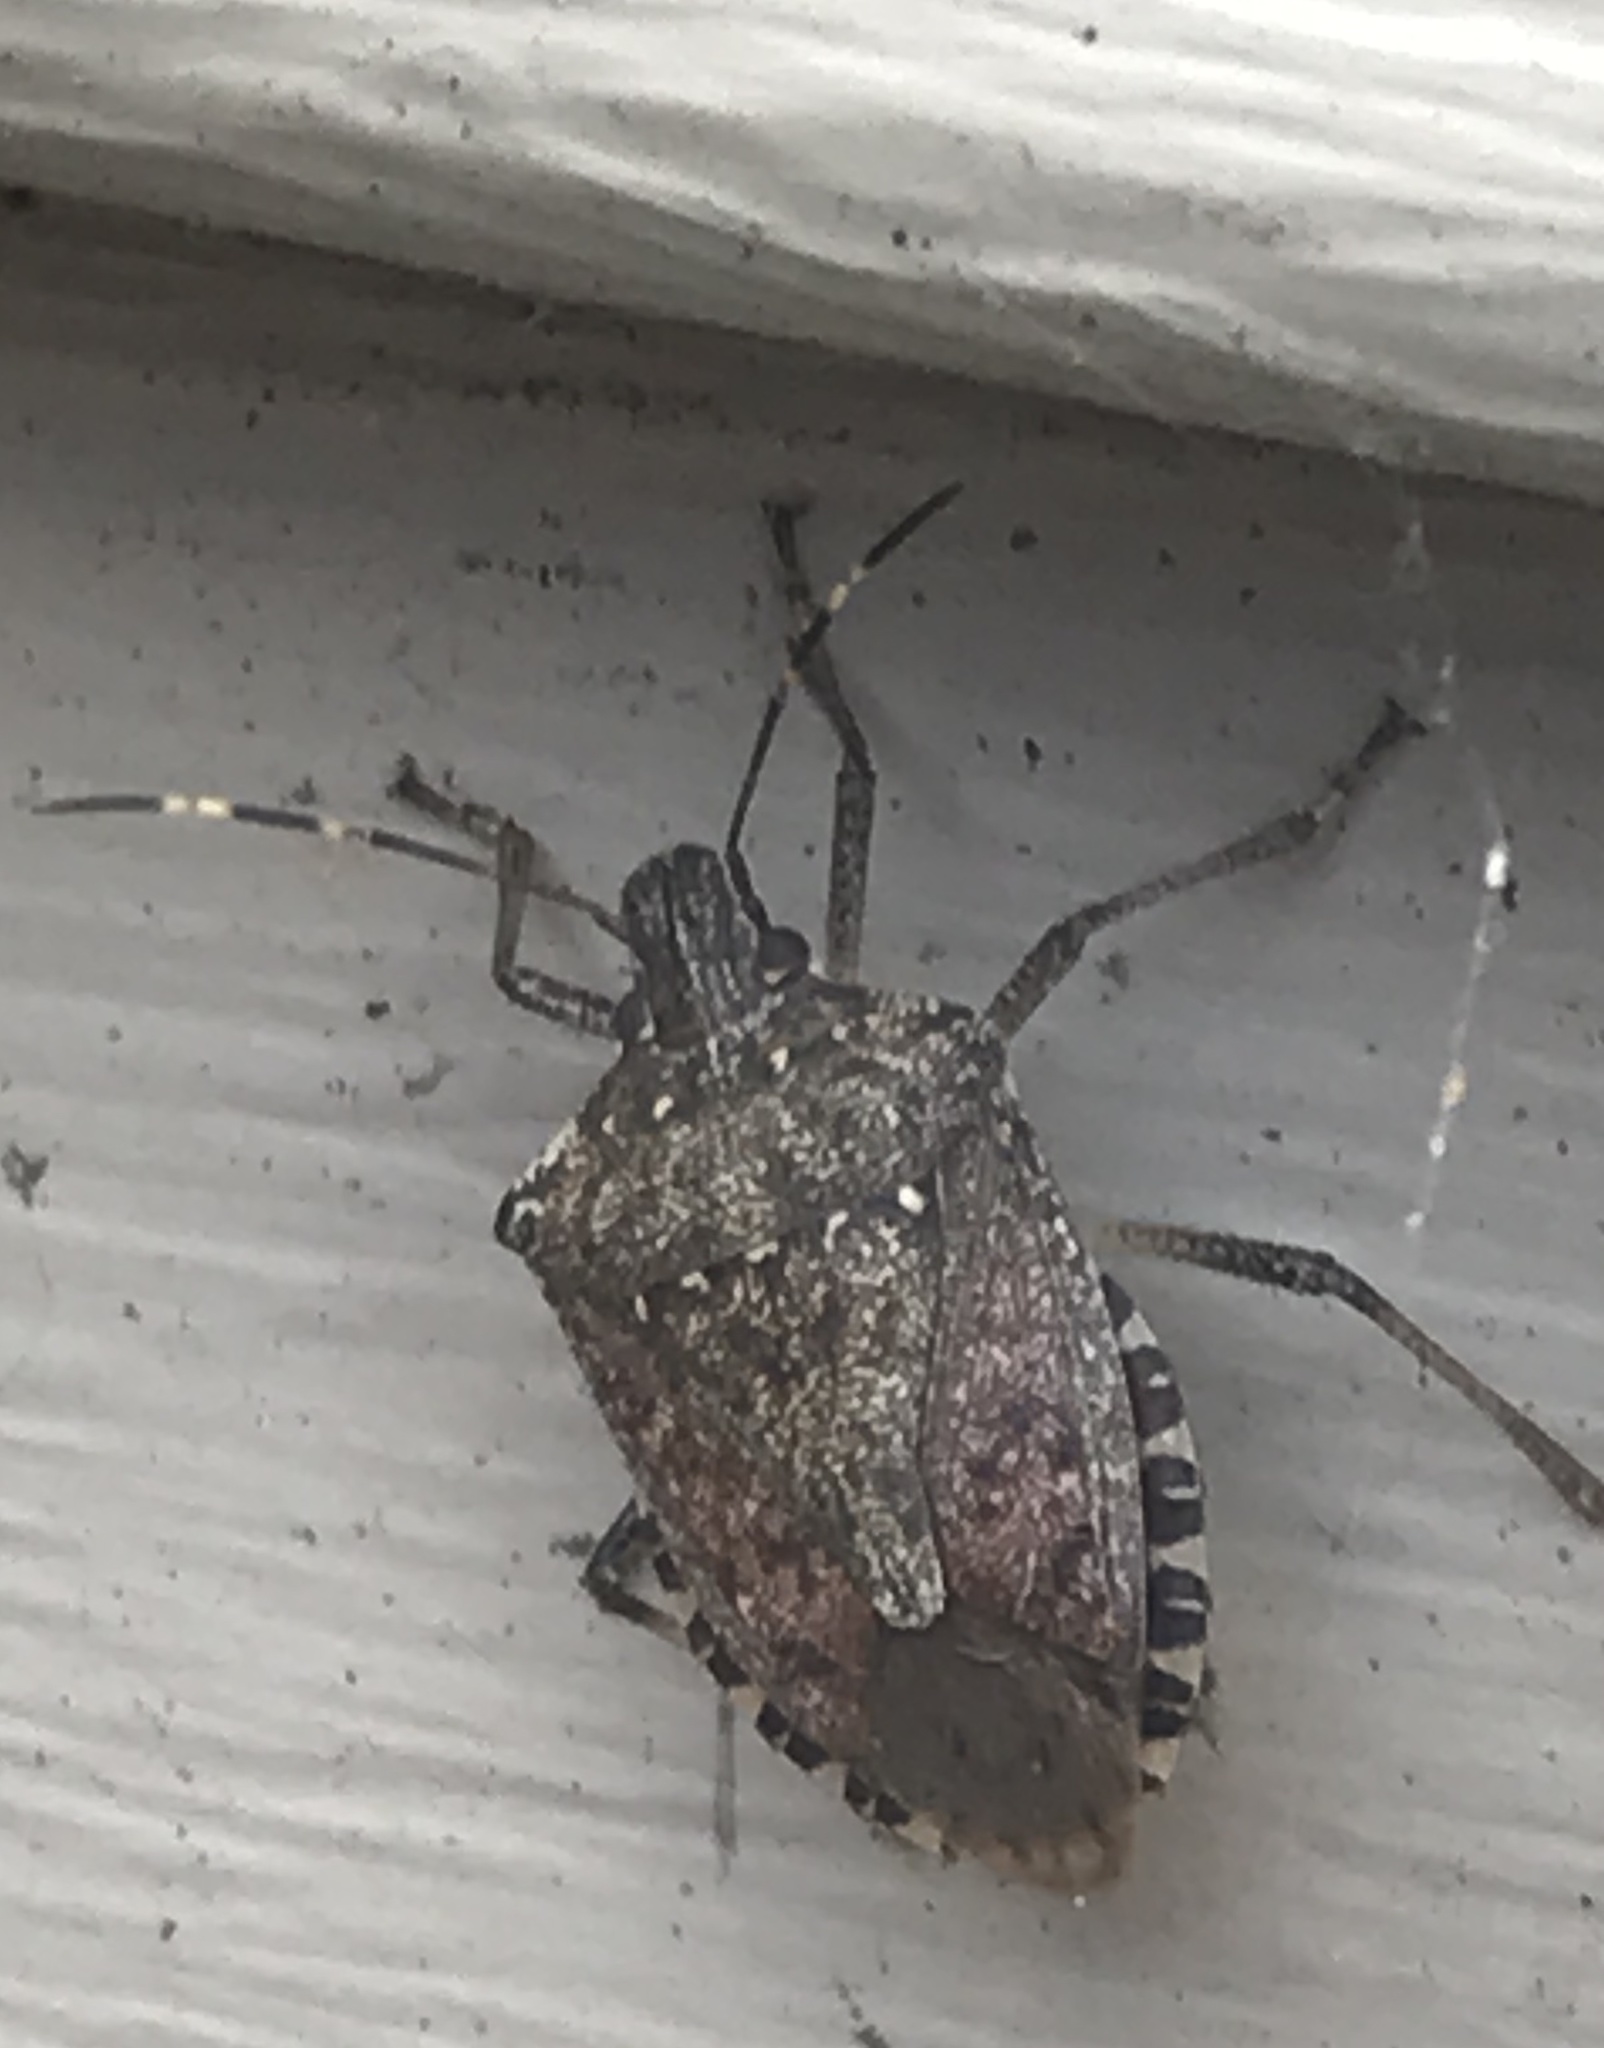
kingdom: Animalia
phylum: Arthropoda
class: Insecta
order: Hemiptera
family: Pentatomidae
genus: Halyomorpha
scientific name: Halyomorpha halys
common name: Brown marmorated stink bug
